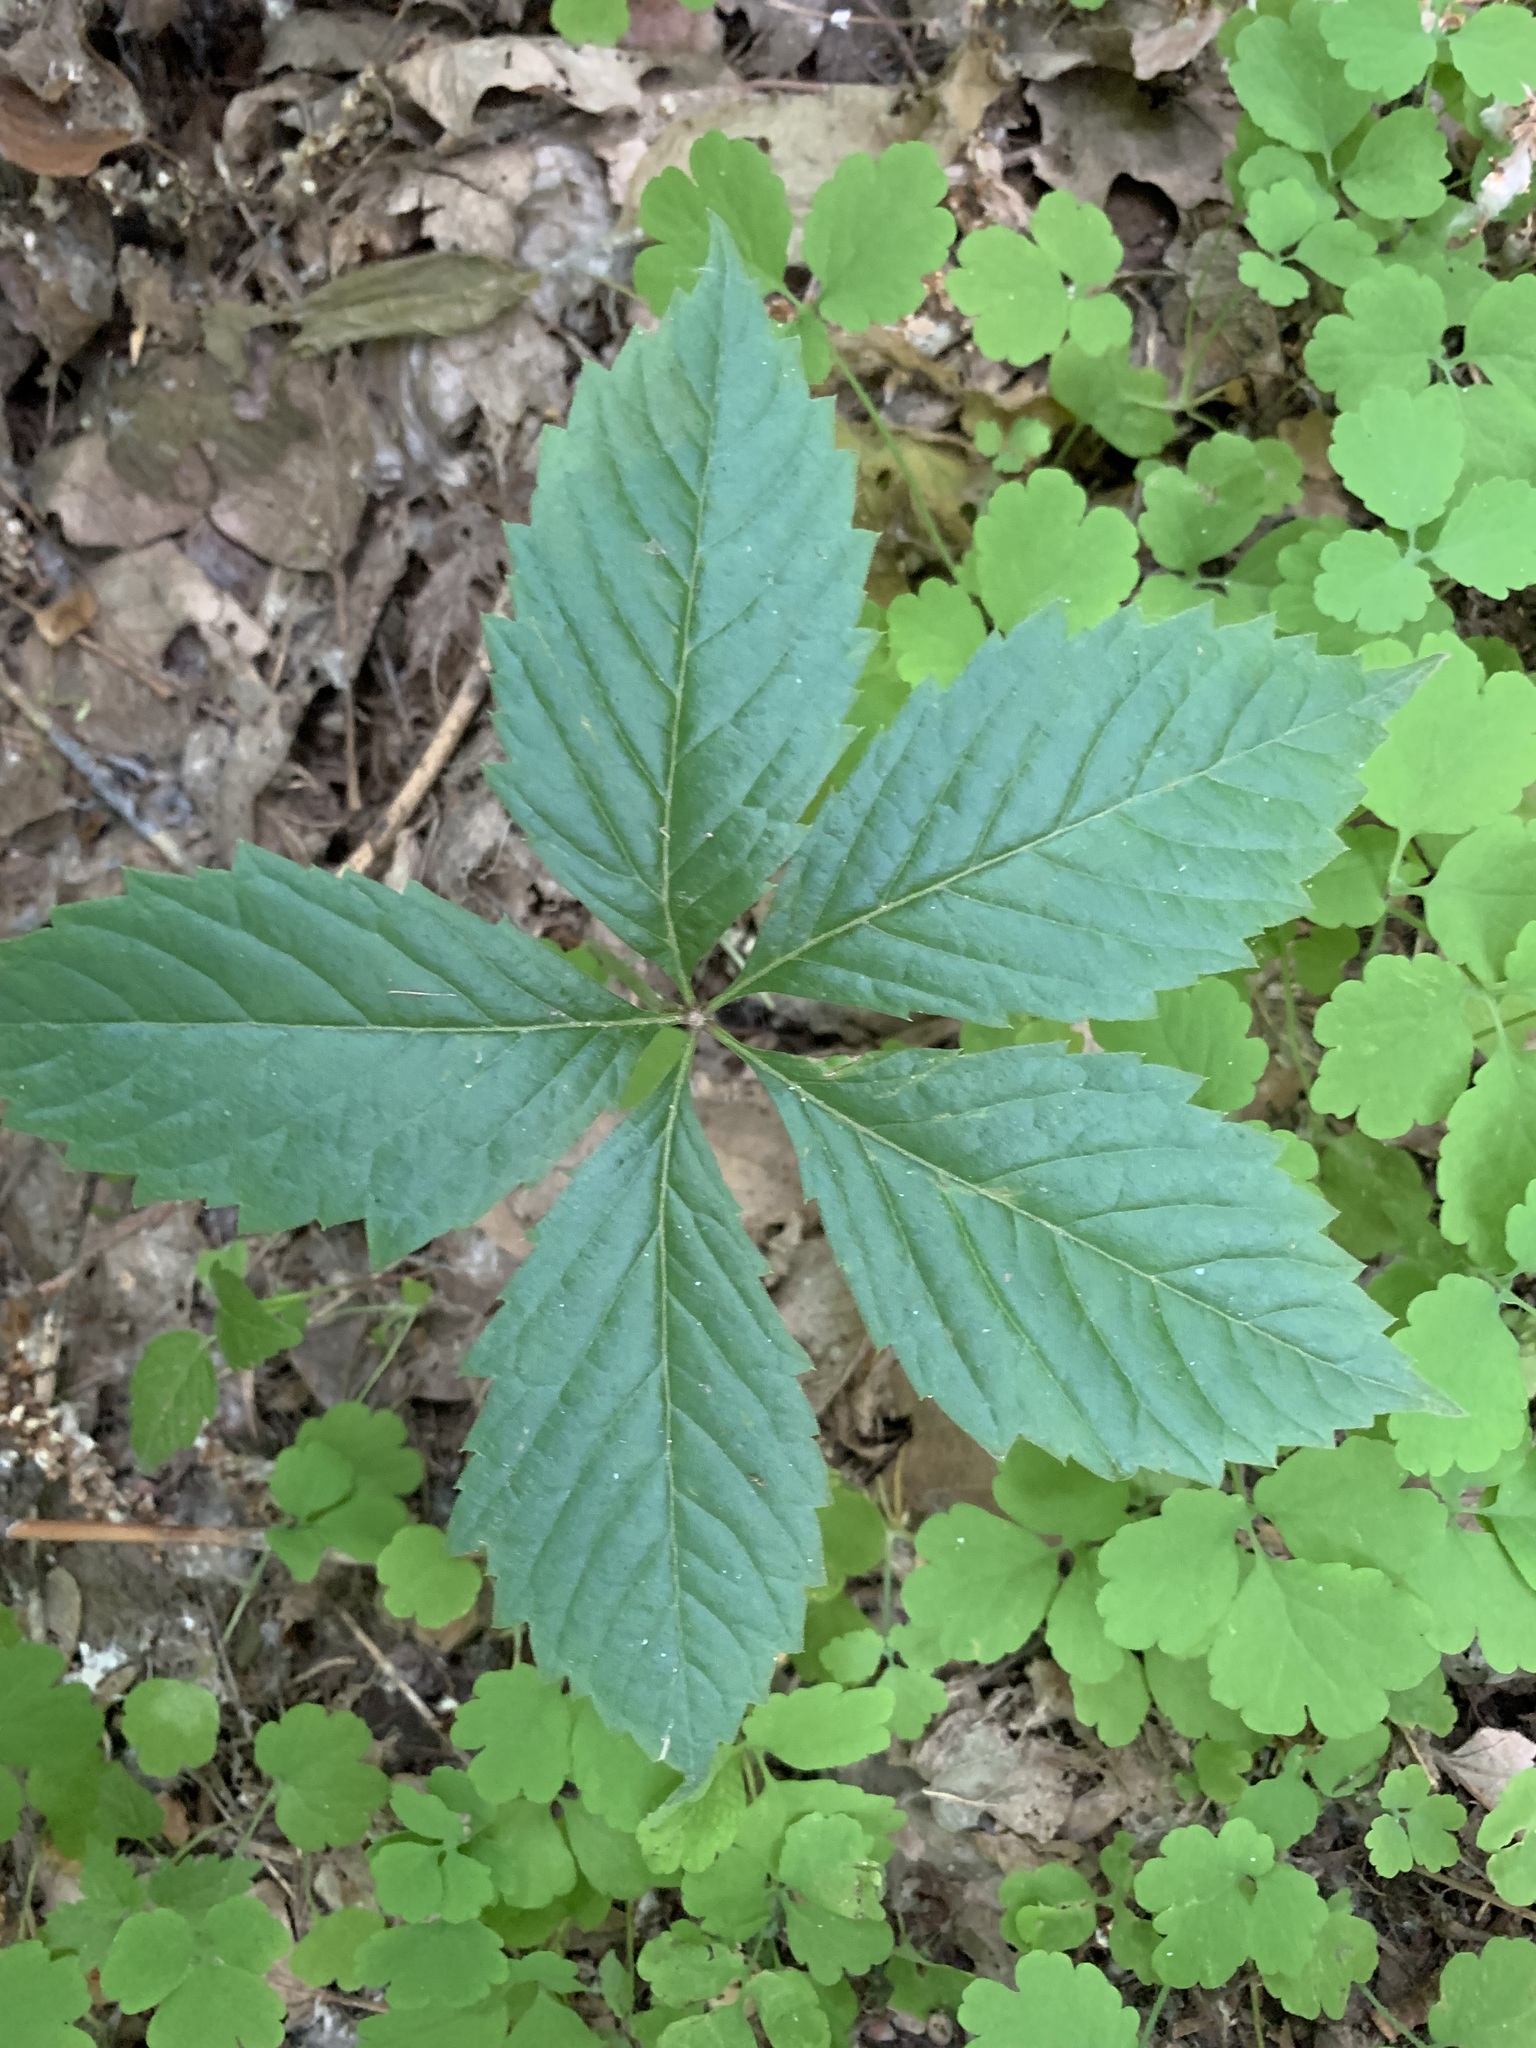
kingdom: Plantae
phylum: Tracheophyta
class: Magnoliopsida
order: Vitales
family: Vitaceae
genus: Parthenocissus
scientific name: Parthenocissus inserta
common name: False virginia-creeper
